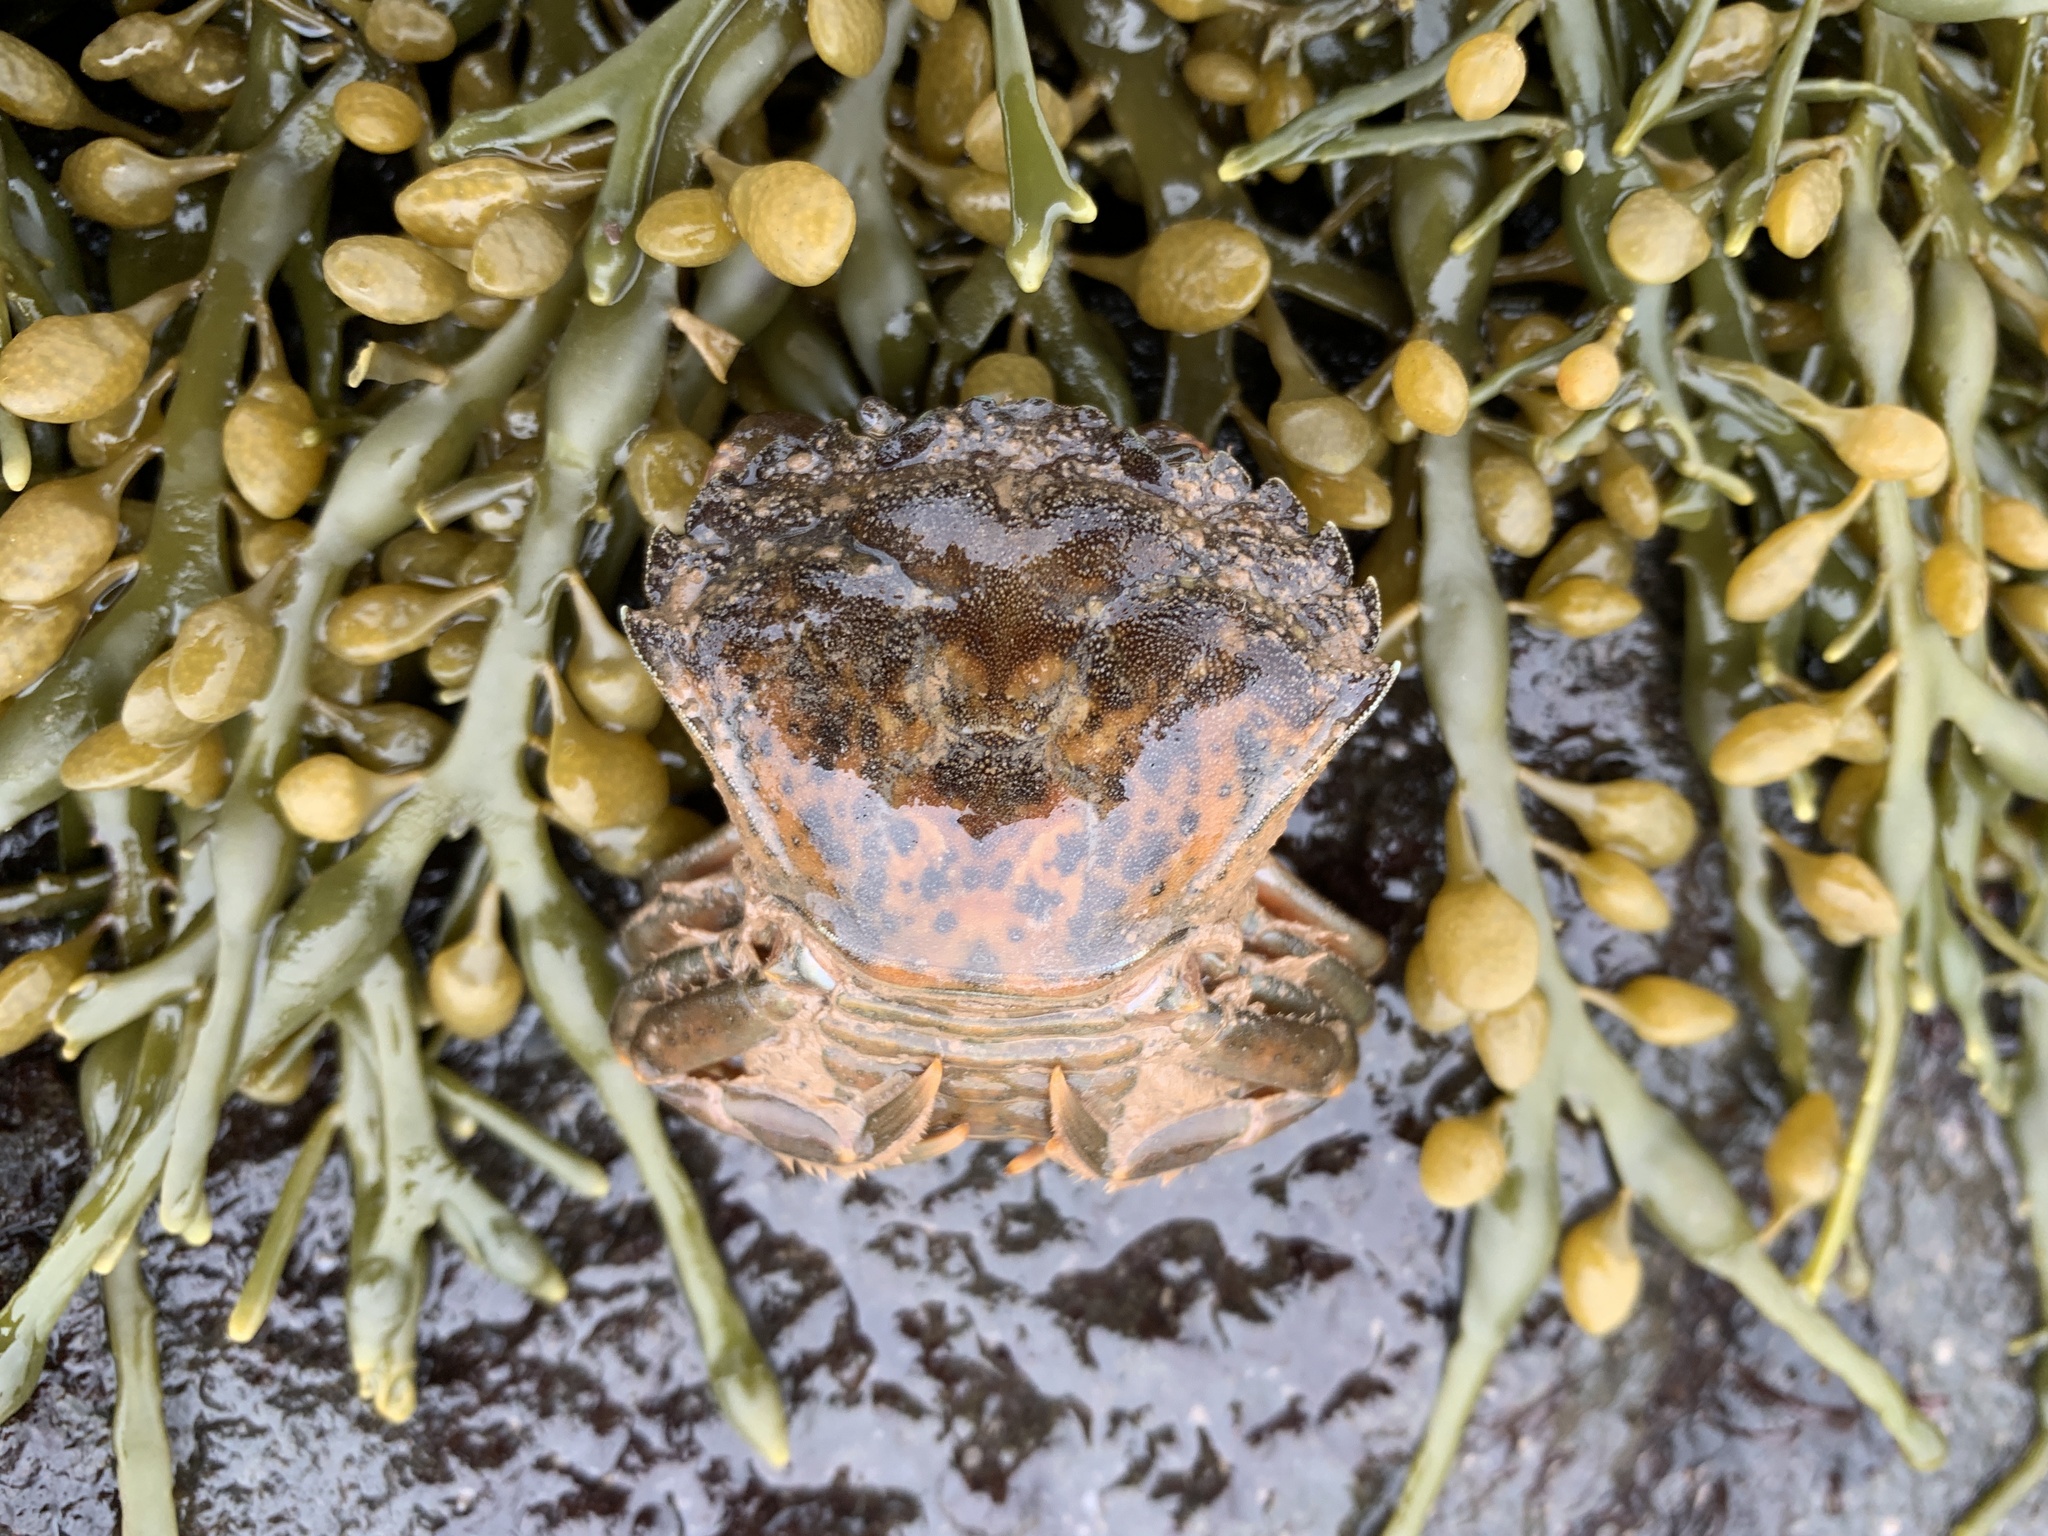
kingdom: Animalia
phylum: Arthropoda
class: Malacostraca
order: Decapoda
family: Carcinidae
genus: Carcinus
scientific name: Carcinus maenas
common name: European green crab
